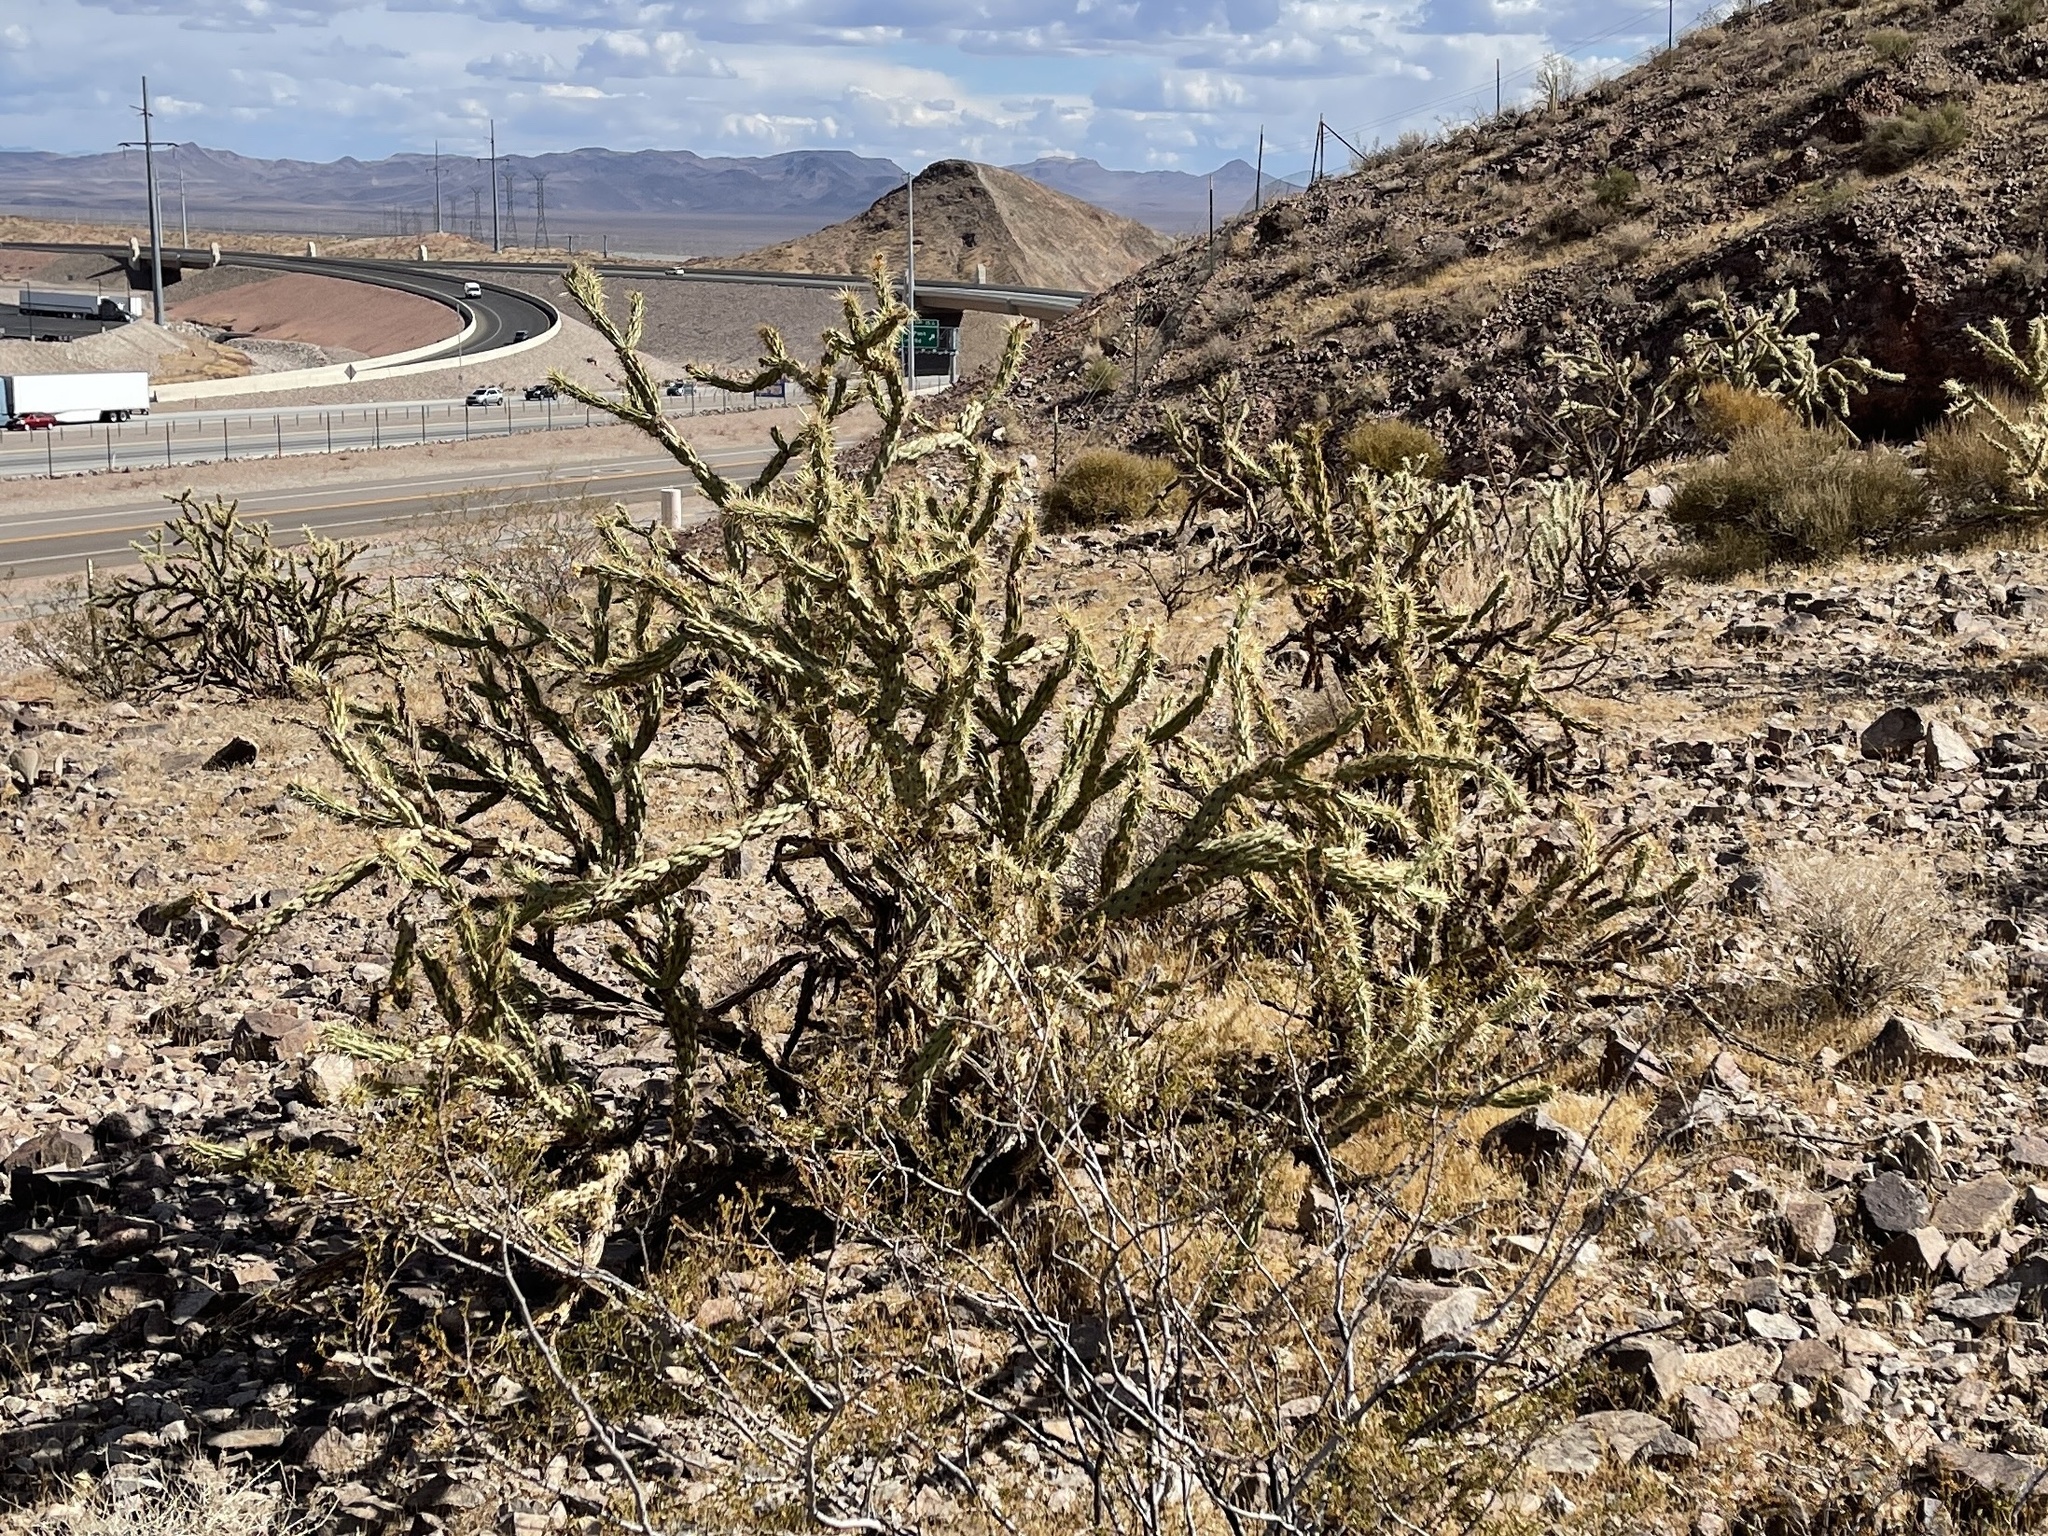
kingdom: Plantae
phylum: Tracheophyta
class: Magnoliopsida
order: Caryophyllales
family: Cactaceae
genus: Cylindropuntia
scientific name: Cylindropuntia acanthocarpa
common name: Buckhorn cholla
